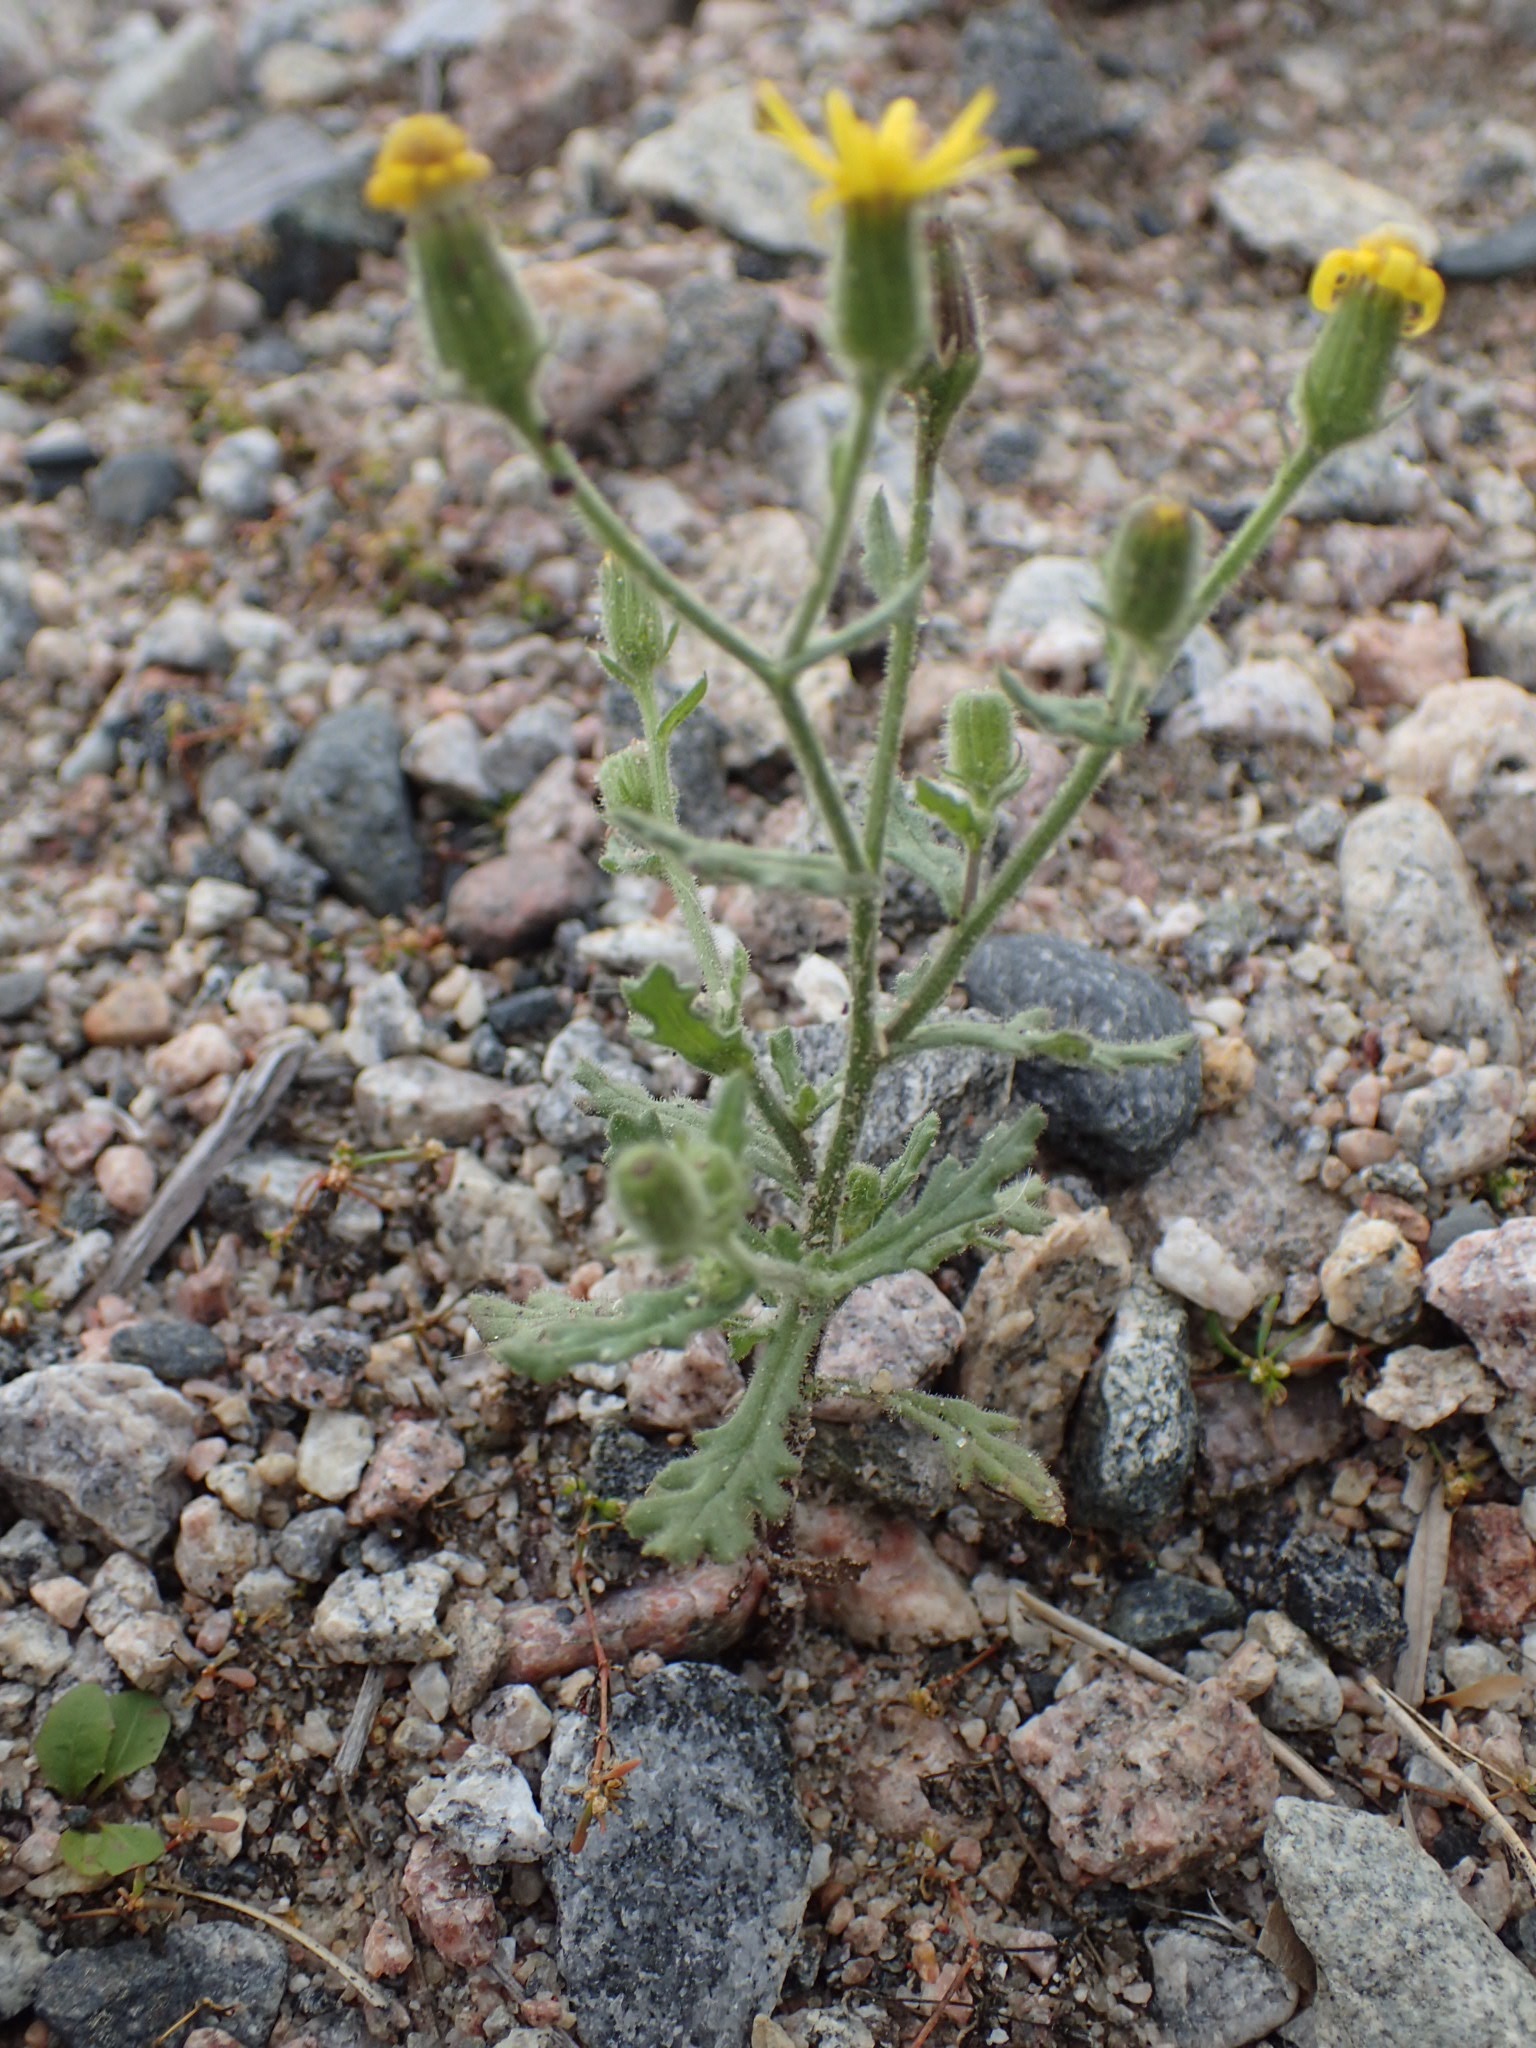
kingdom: Plantae
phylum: Tracheophyta
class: Magnoliopsida
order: Asterales
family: Asteraceae
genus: Senecio
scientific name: Senecio viscosus
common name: Sticky groundsel
